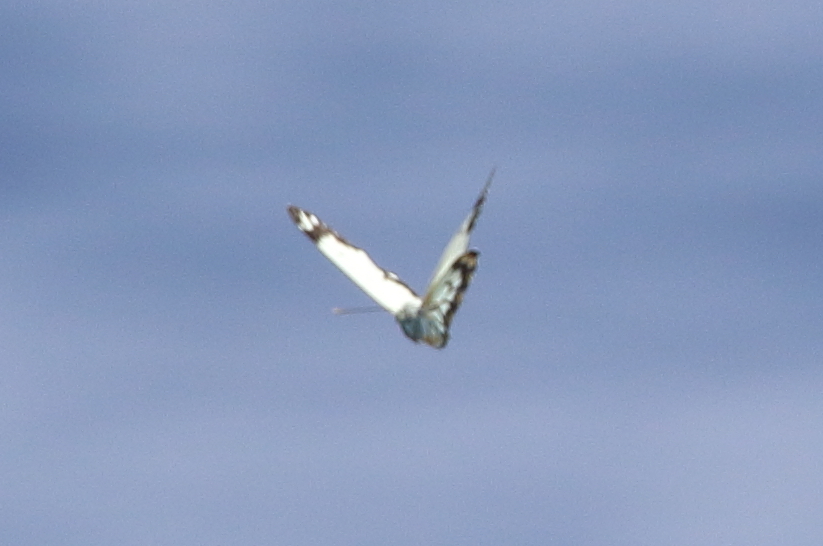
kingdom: Animalia
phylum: Arthropoda
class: Insecta
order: Lepidoptera
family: Pieridae
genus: Belenois
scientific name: Belenois java
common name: Caper white
